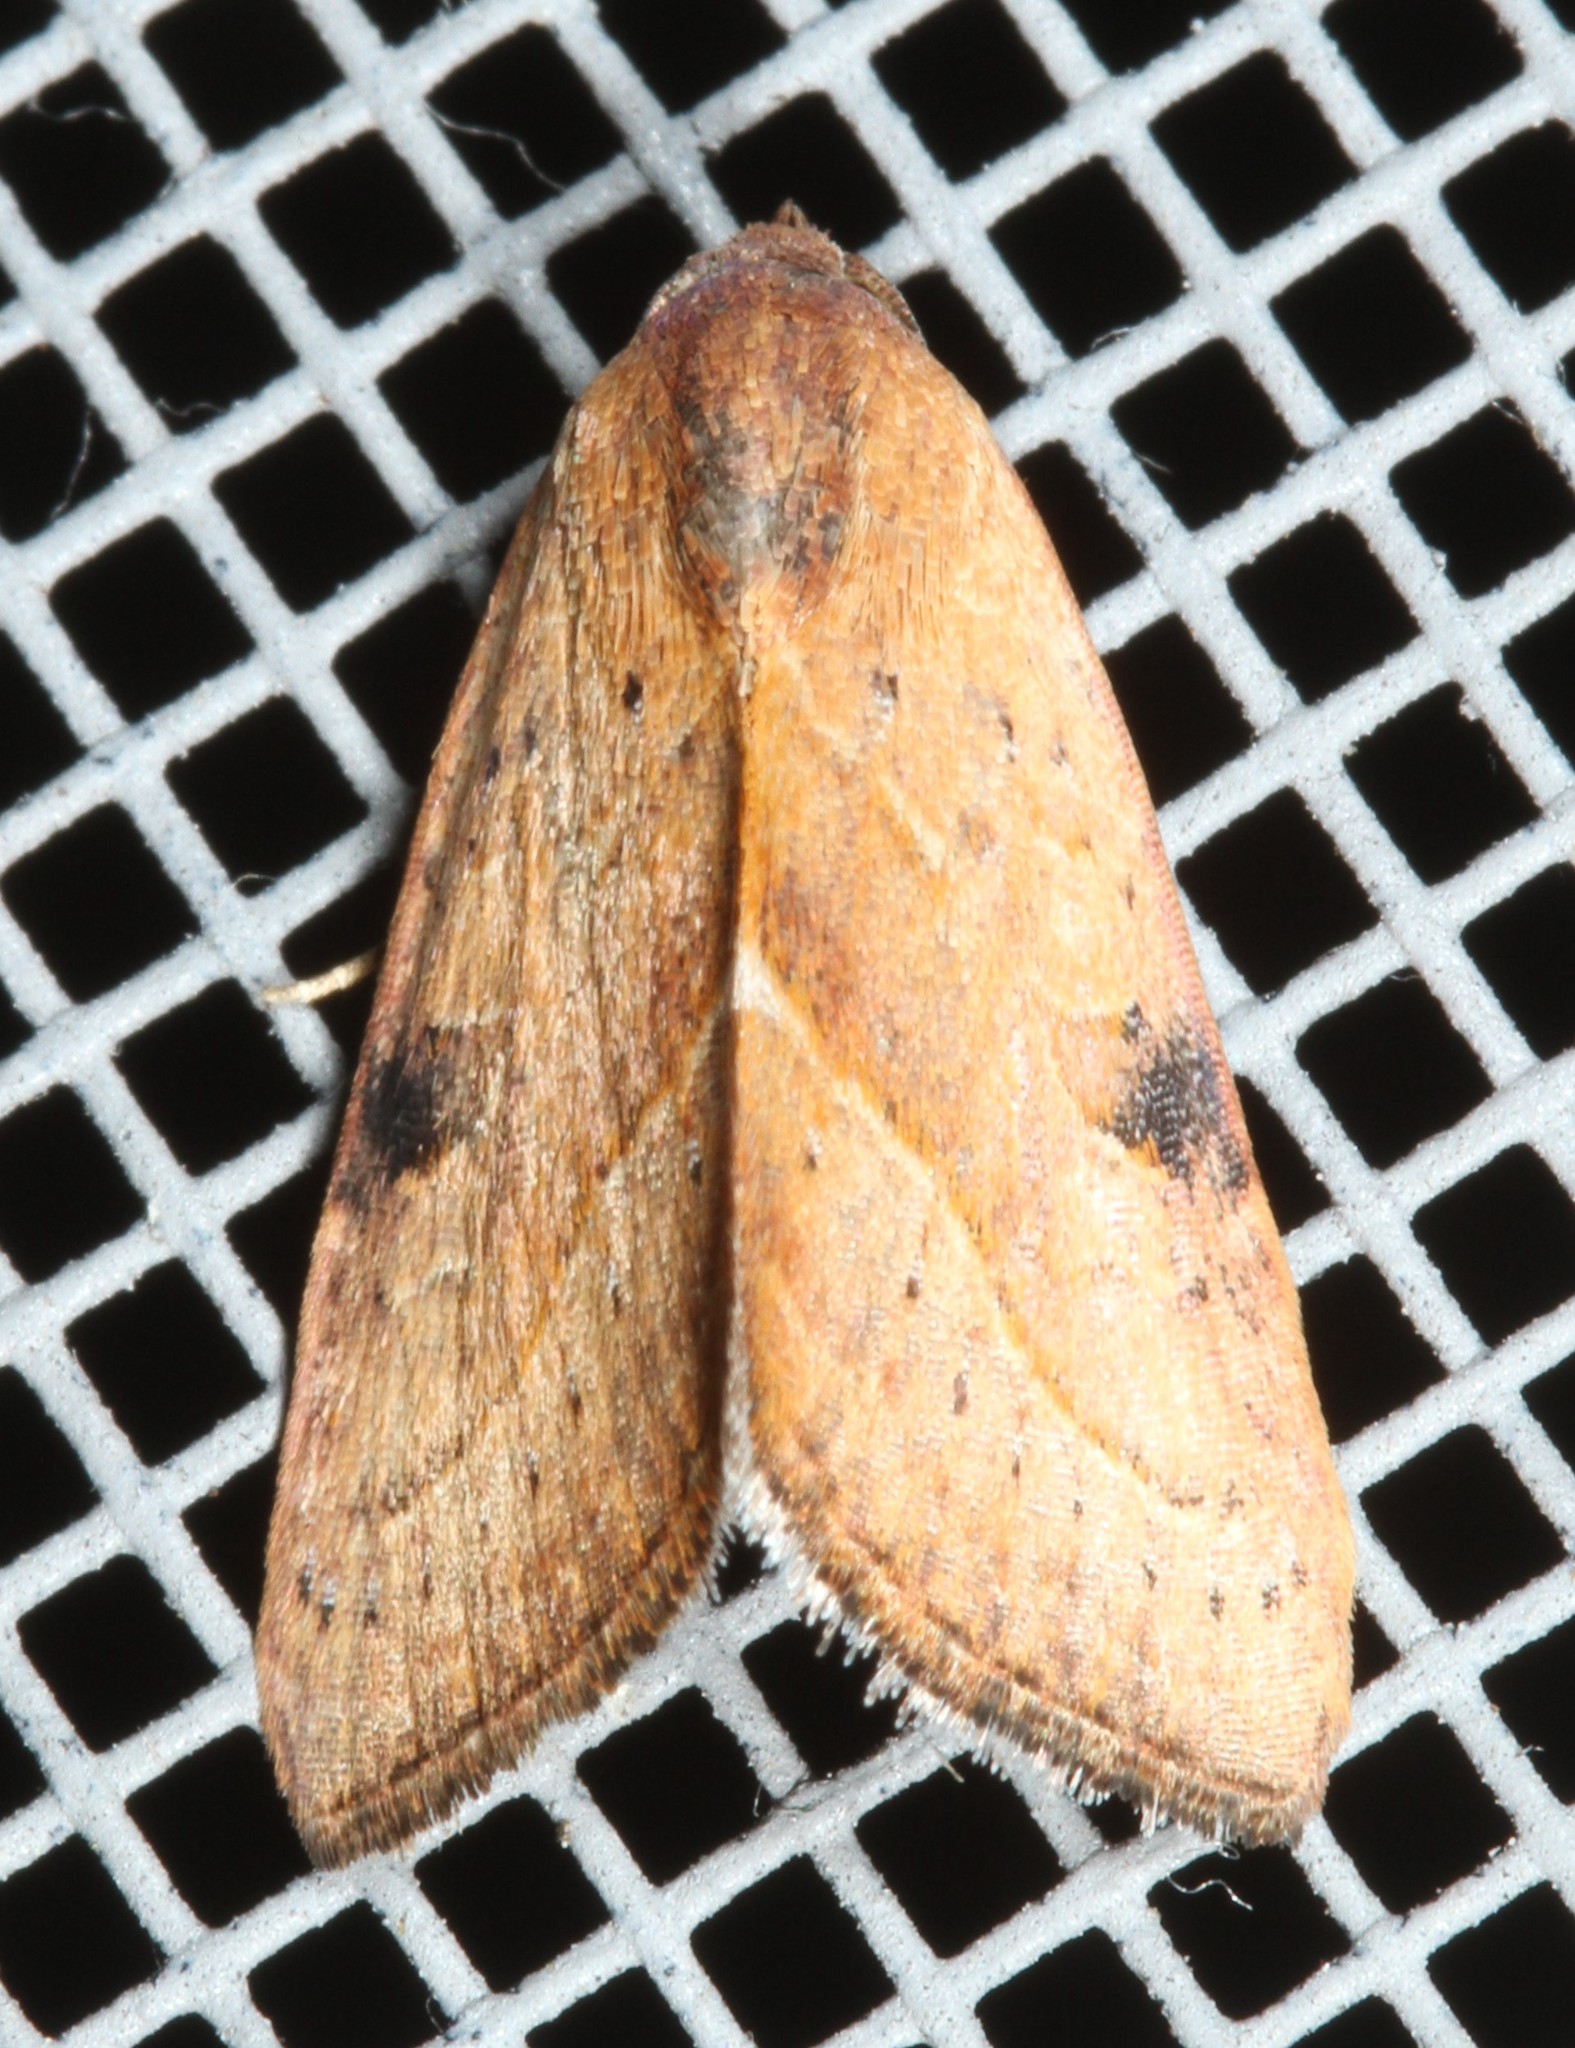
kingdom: Animalia
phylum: Arthropoda
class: Insecta
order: Lepidoptera
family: Noctuidae
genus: Galgula
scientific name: Galgula partita
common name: Wedgeling
